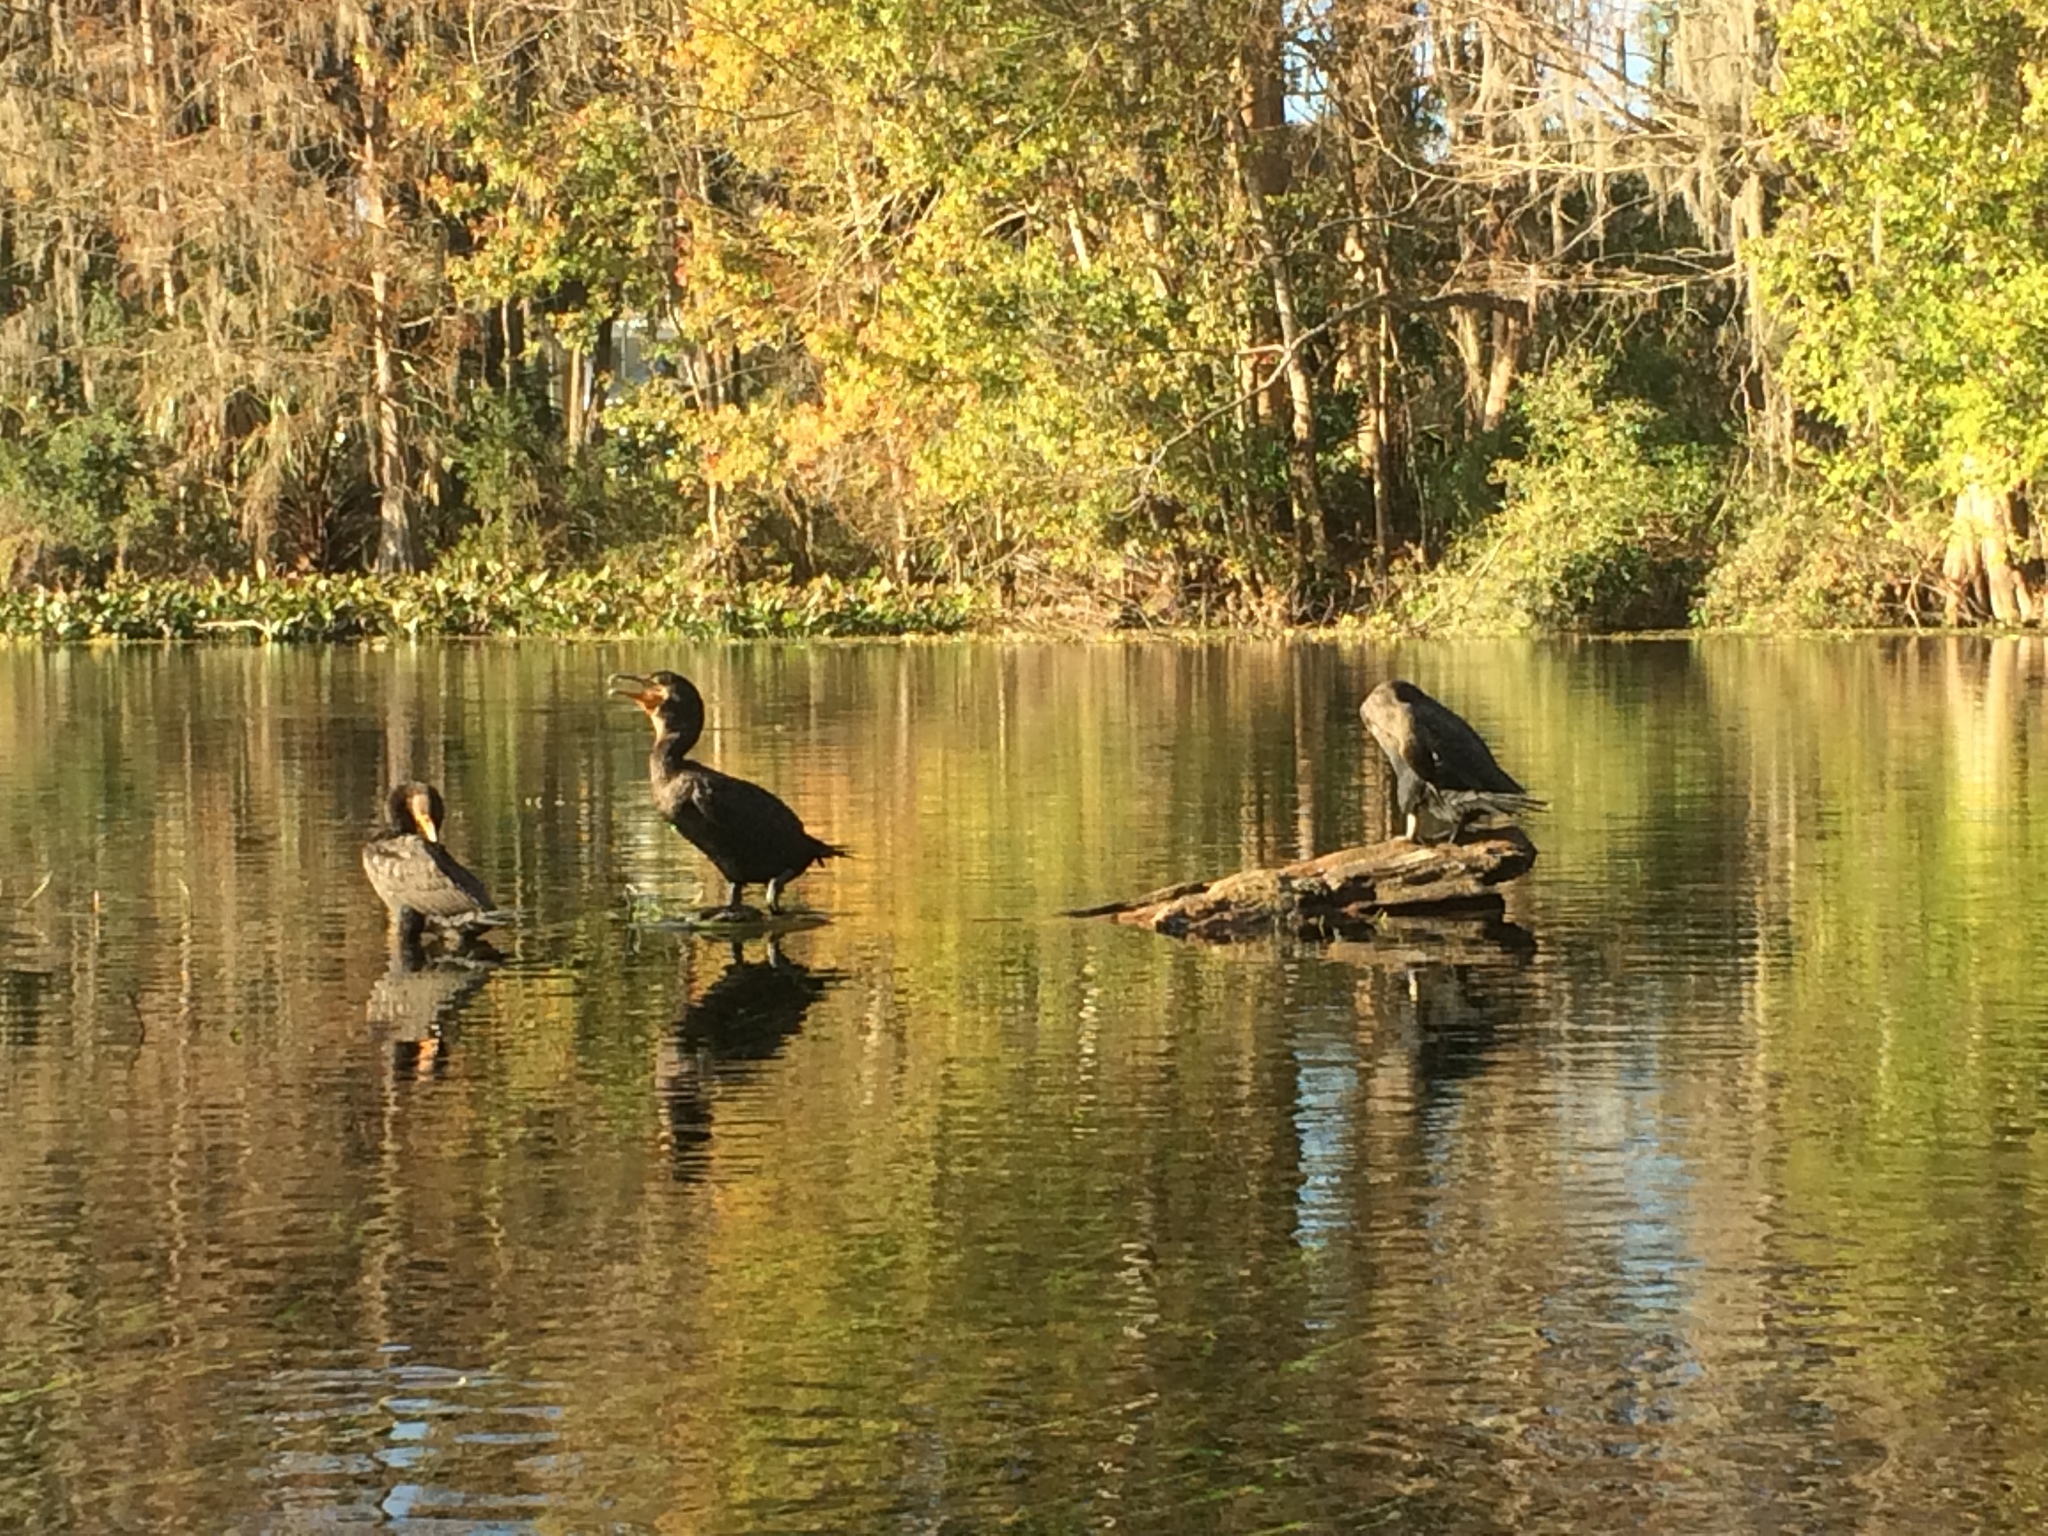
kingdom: Animalia
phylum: Chordata
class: Aves
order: Suliformes
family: Phalacrocoracidae
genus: Phalacrocorax
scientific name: Phalacrocorax auritus
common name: Double-crested cormorant
